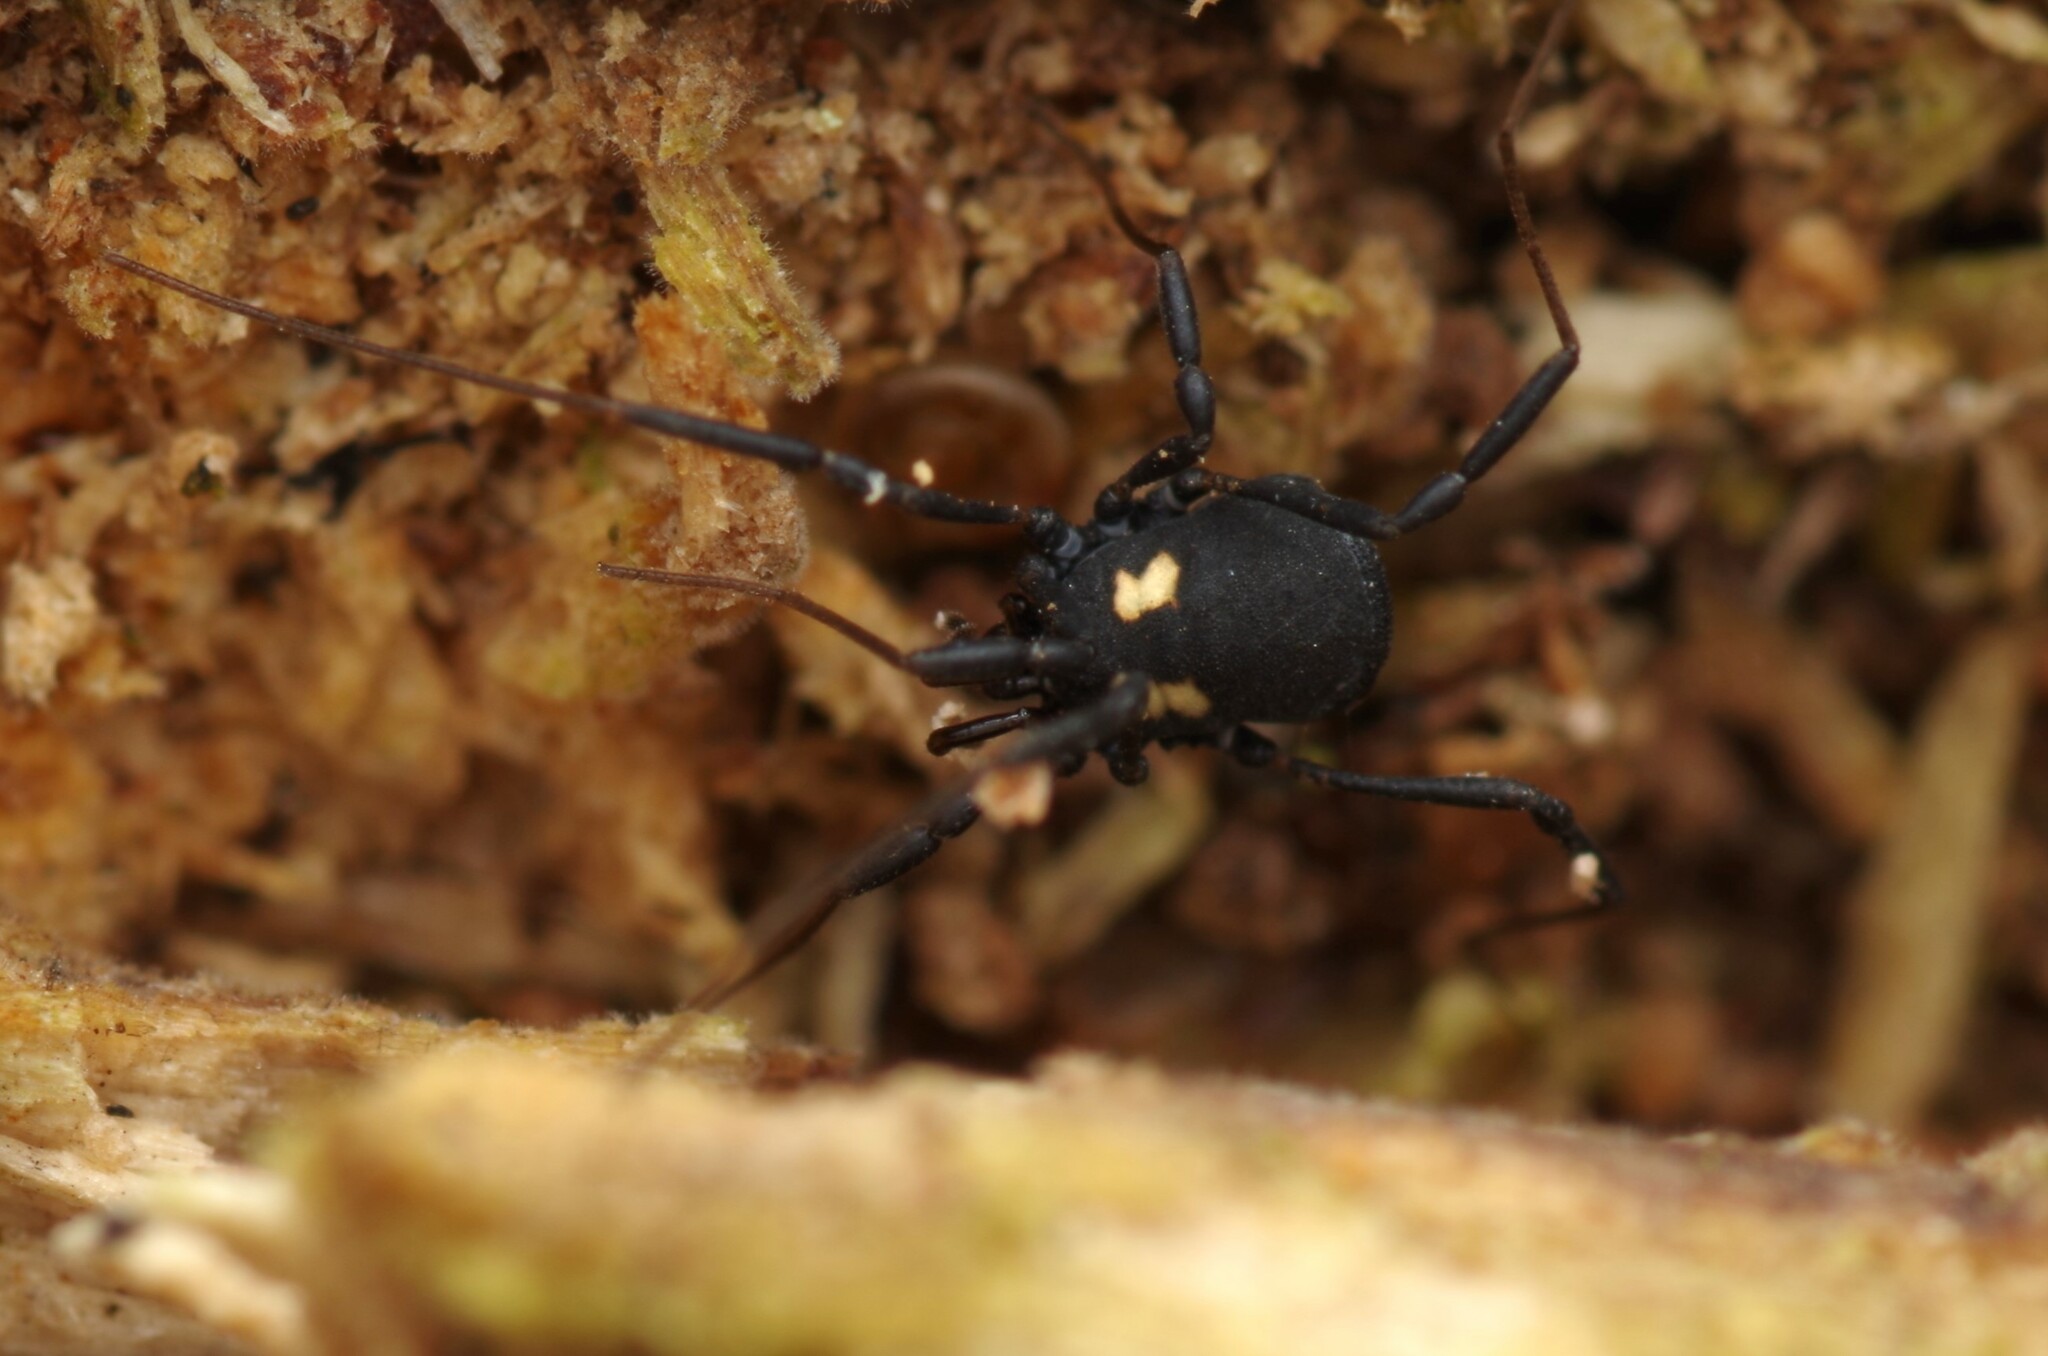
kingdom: Animalia
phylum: Arthropoda
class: Arachnida
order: Opiliones
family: Nemastomatidae
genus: Nemastoma
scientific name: Nemastoma bimaculatum
